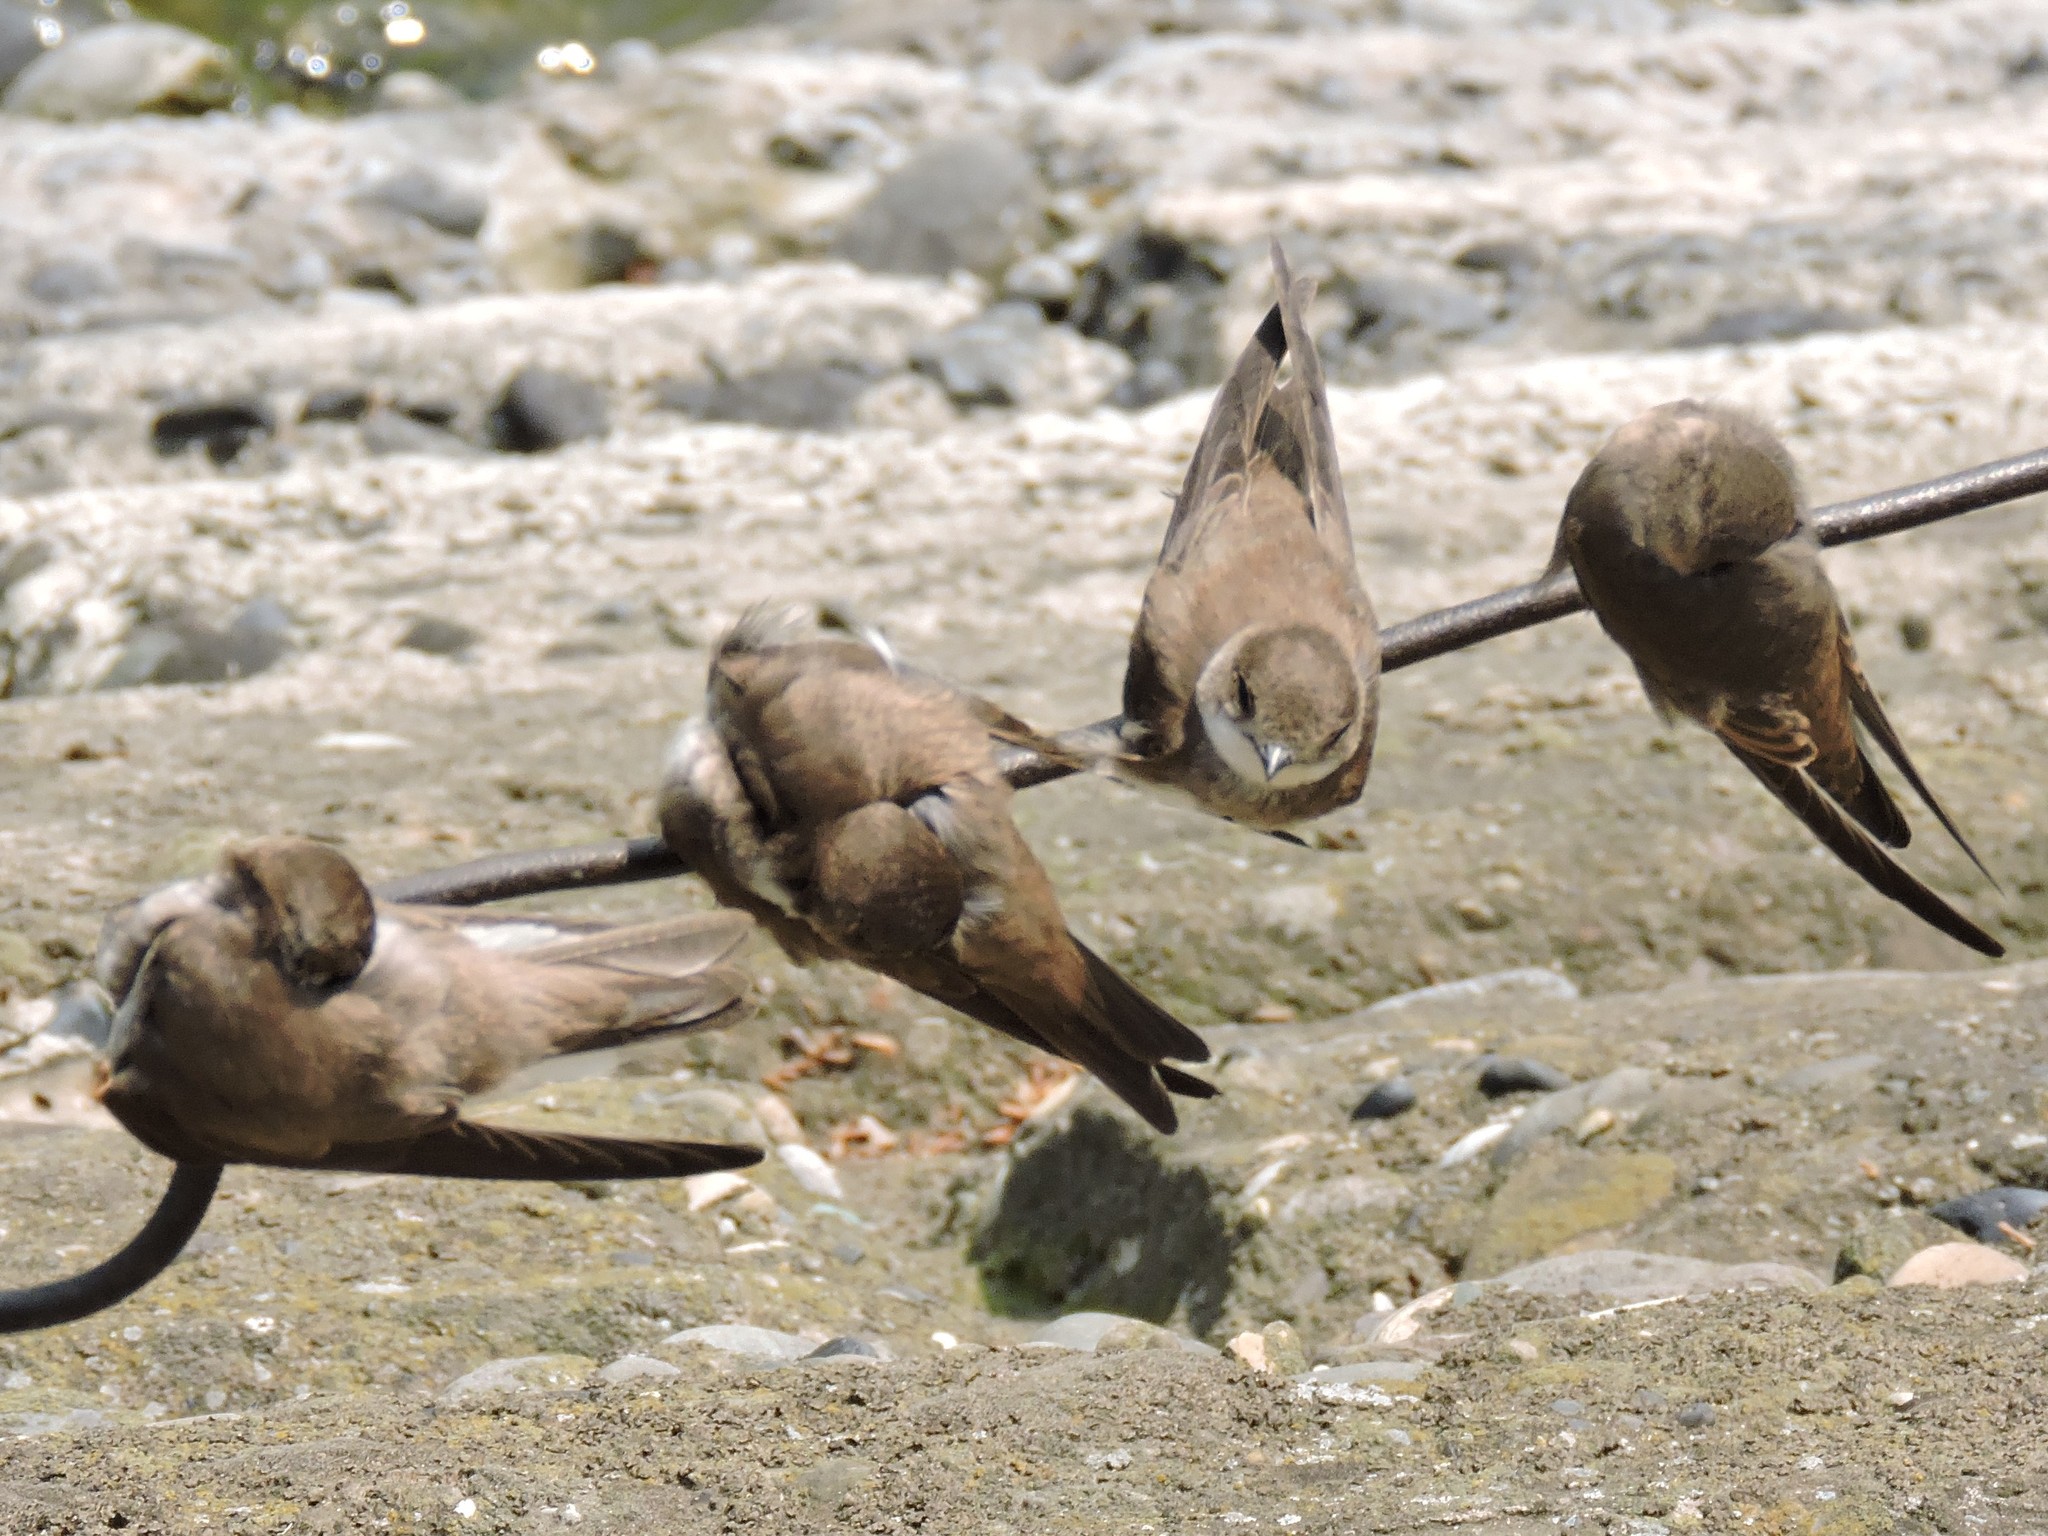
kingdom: Animalia
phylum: Chordata
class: Aves
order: Passeriformes
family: Hirundinidae
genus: Riparia
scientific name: Riparia riparia
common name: Sand martin
